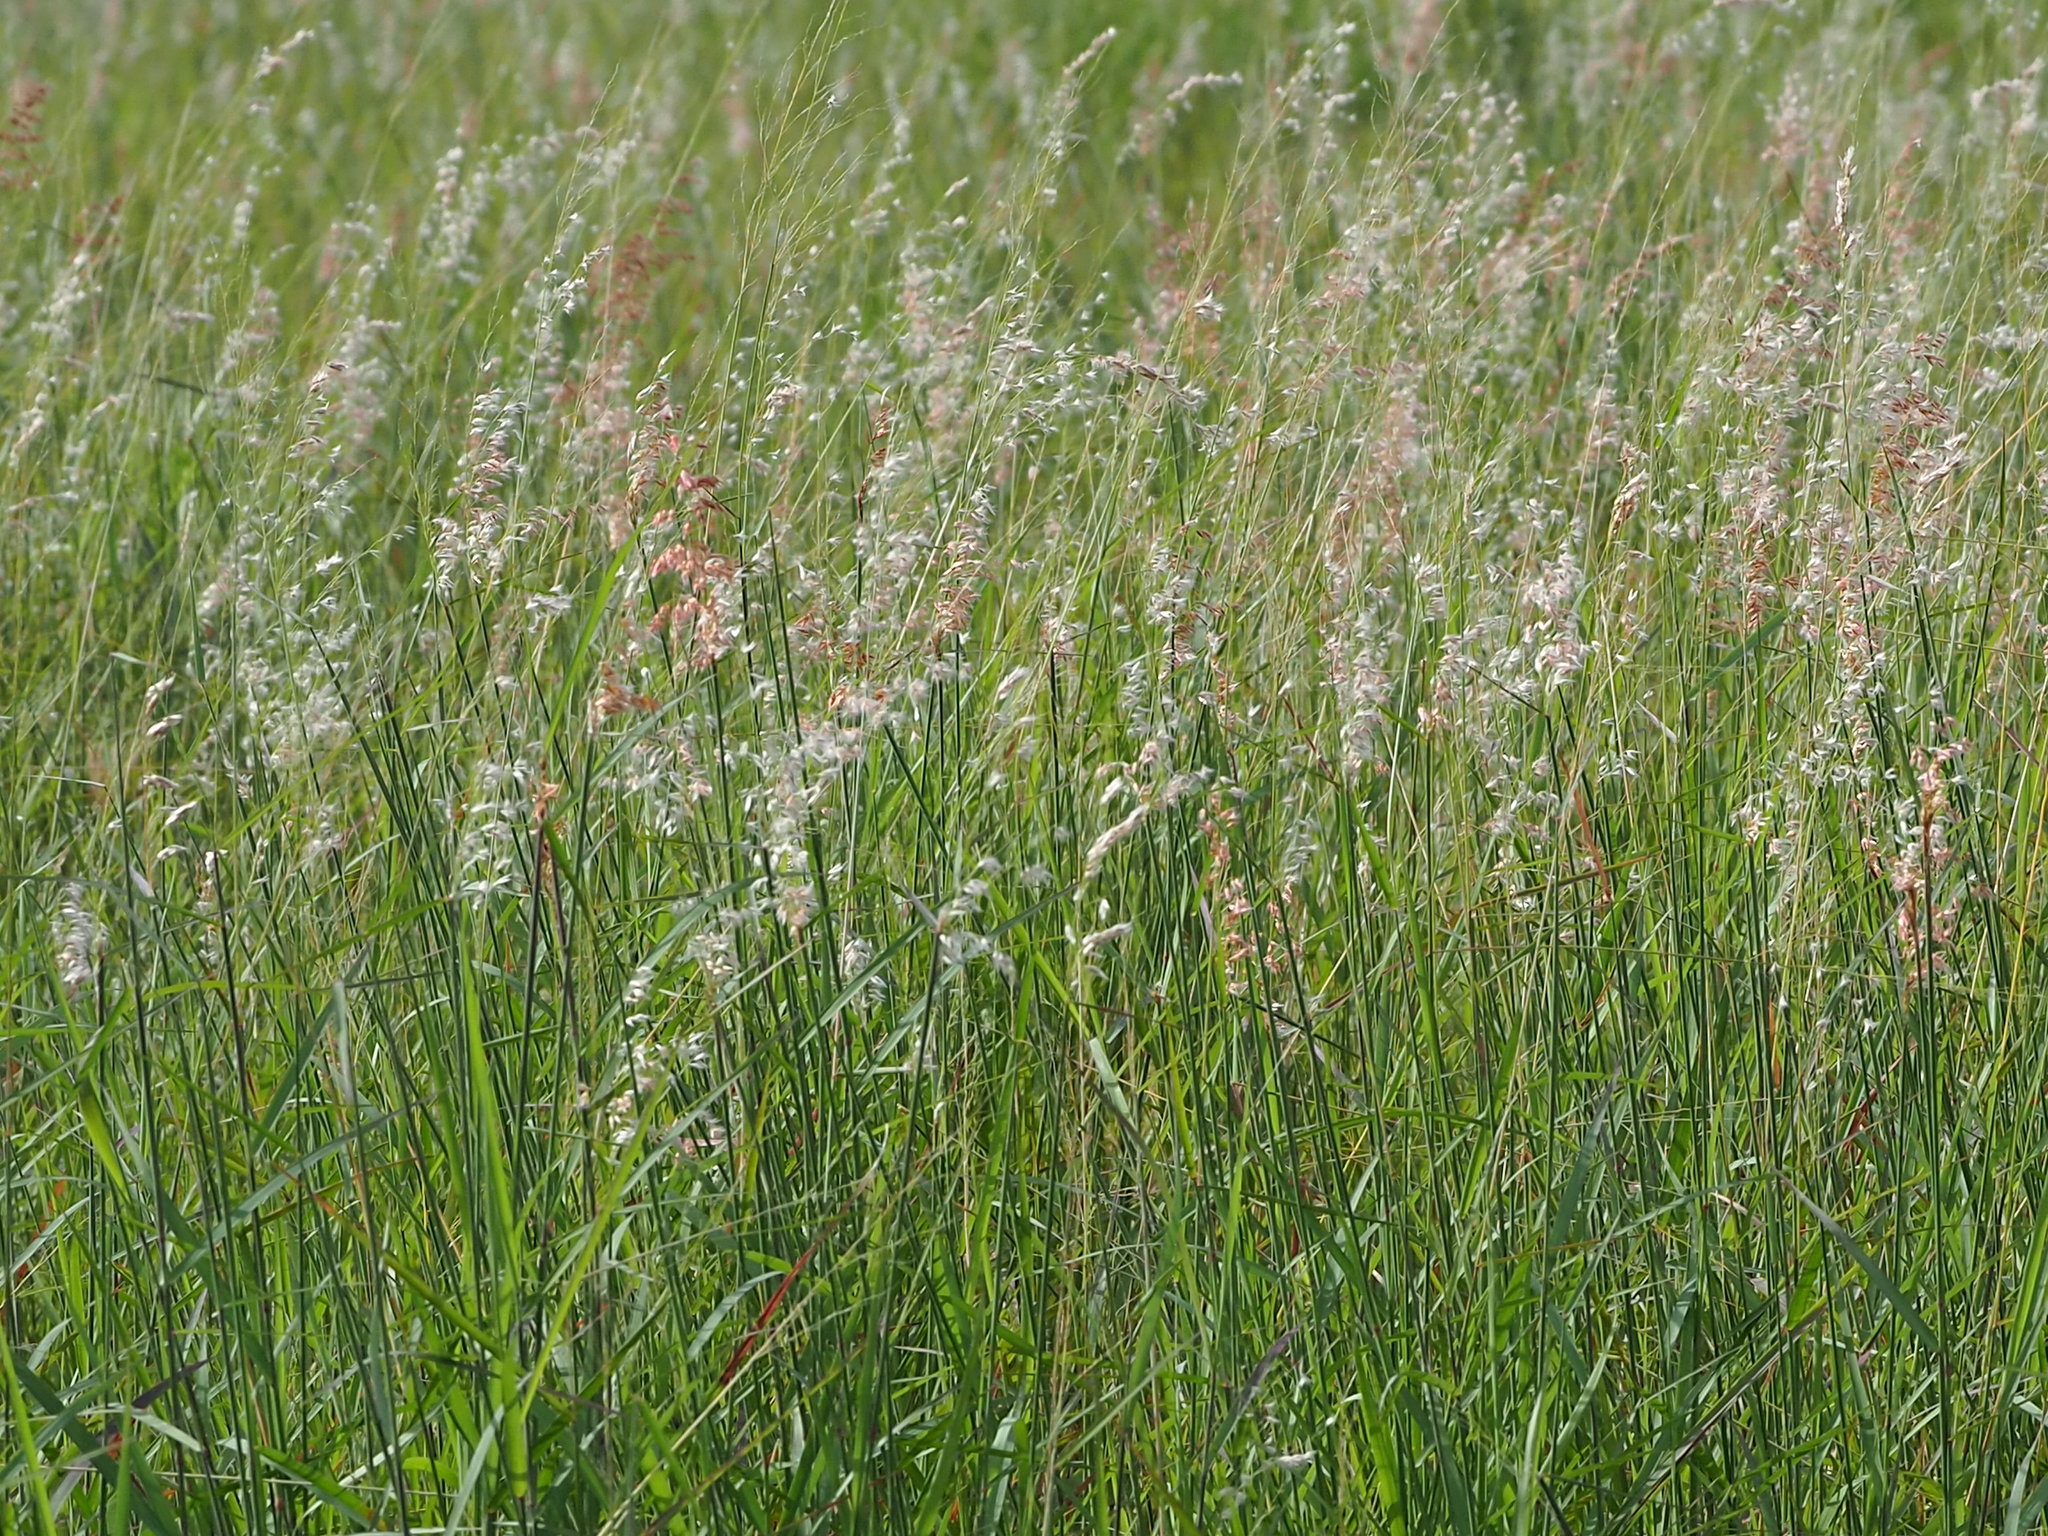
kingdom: Plantae
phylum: Tracheophyta
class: Liliopsida
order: Poales
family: Poaceae
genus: Melinis
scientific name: Melinis repens
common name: Rose natal grass
